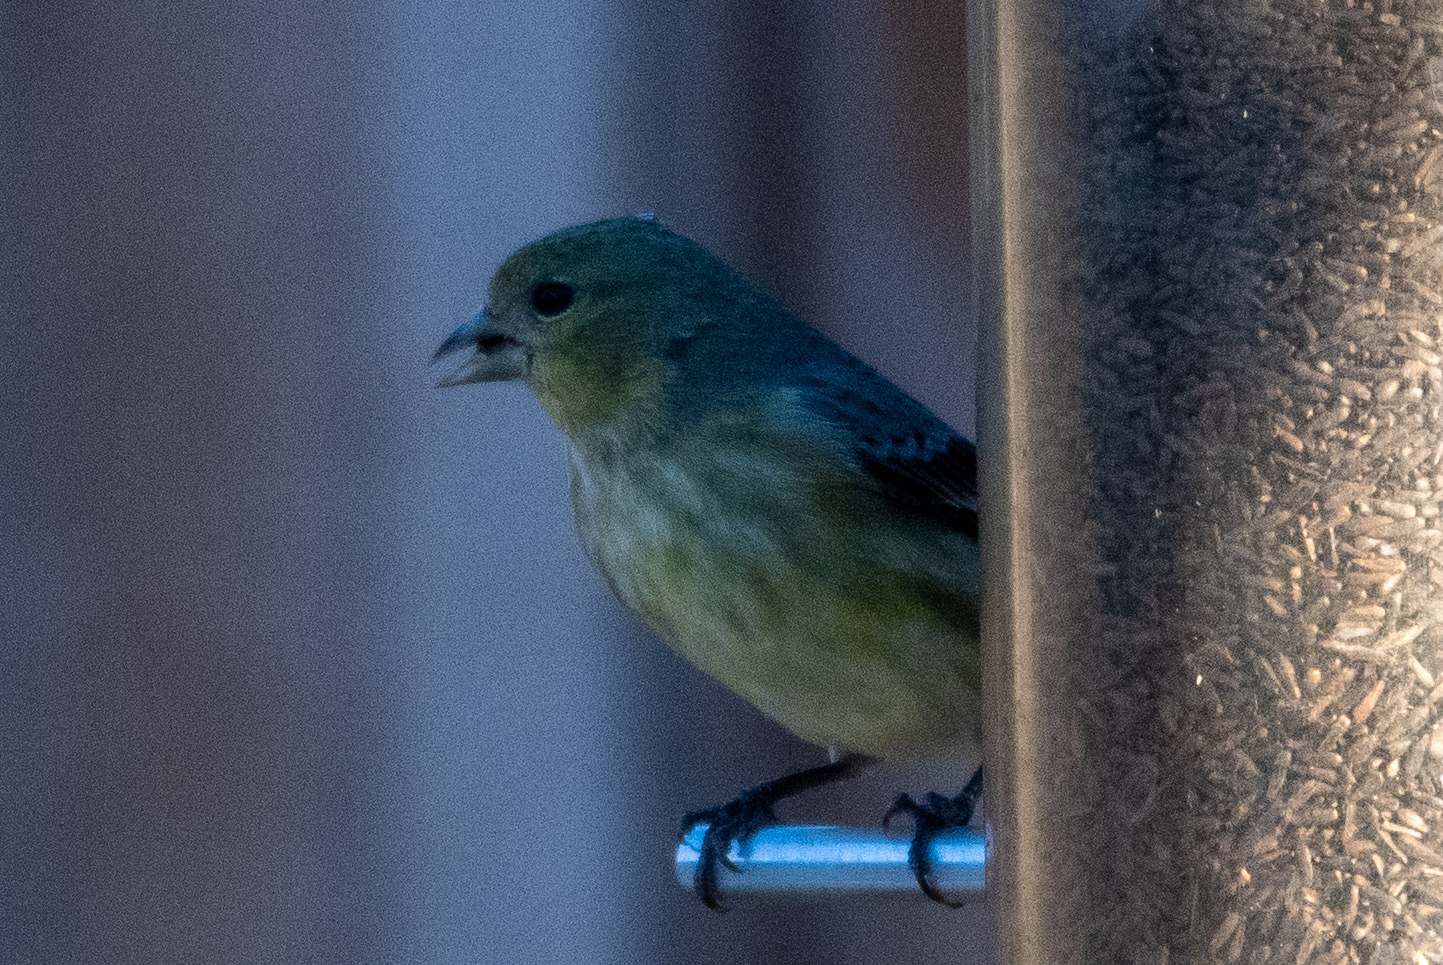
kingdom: Animalia
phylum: Chordata
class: Aves
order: Passeriformes
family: Fringillidae
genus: Spinus
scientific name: Spinus psaltria
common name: Lesser goldfinch
